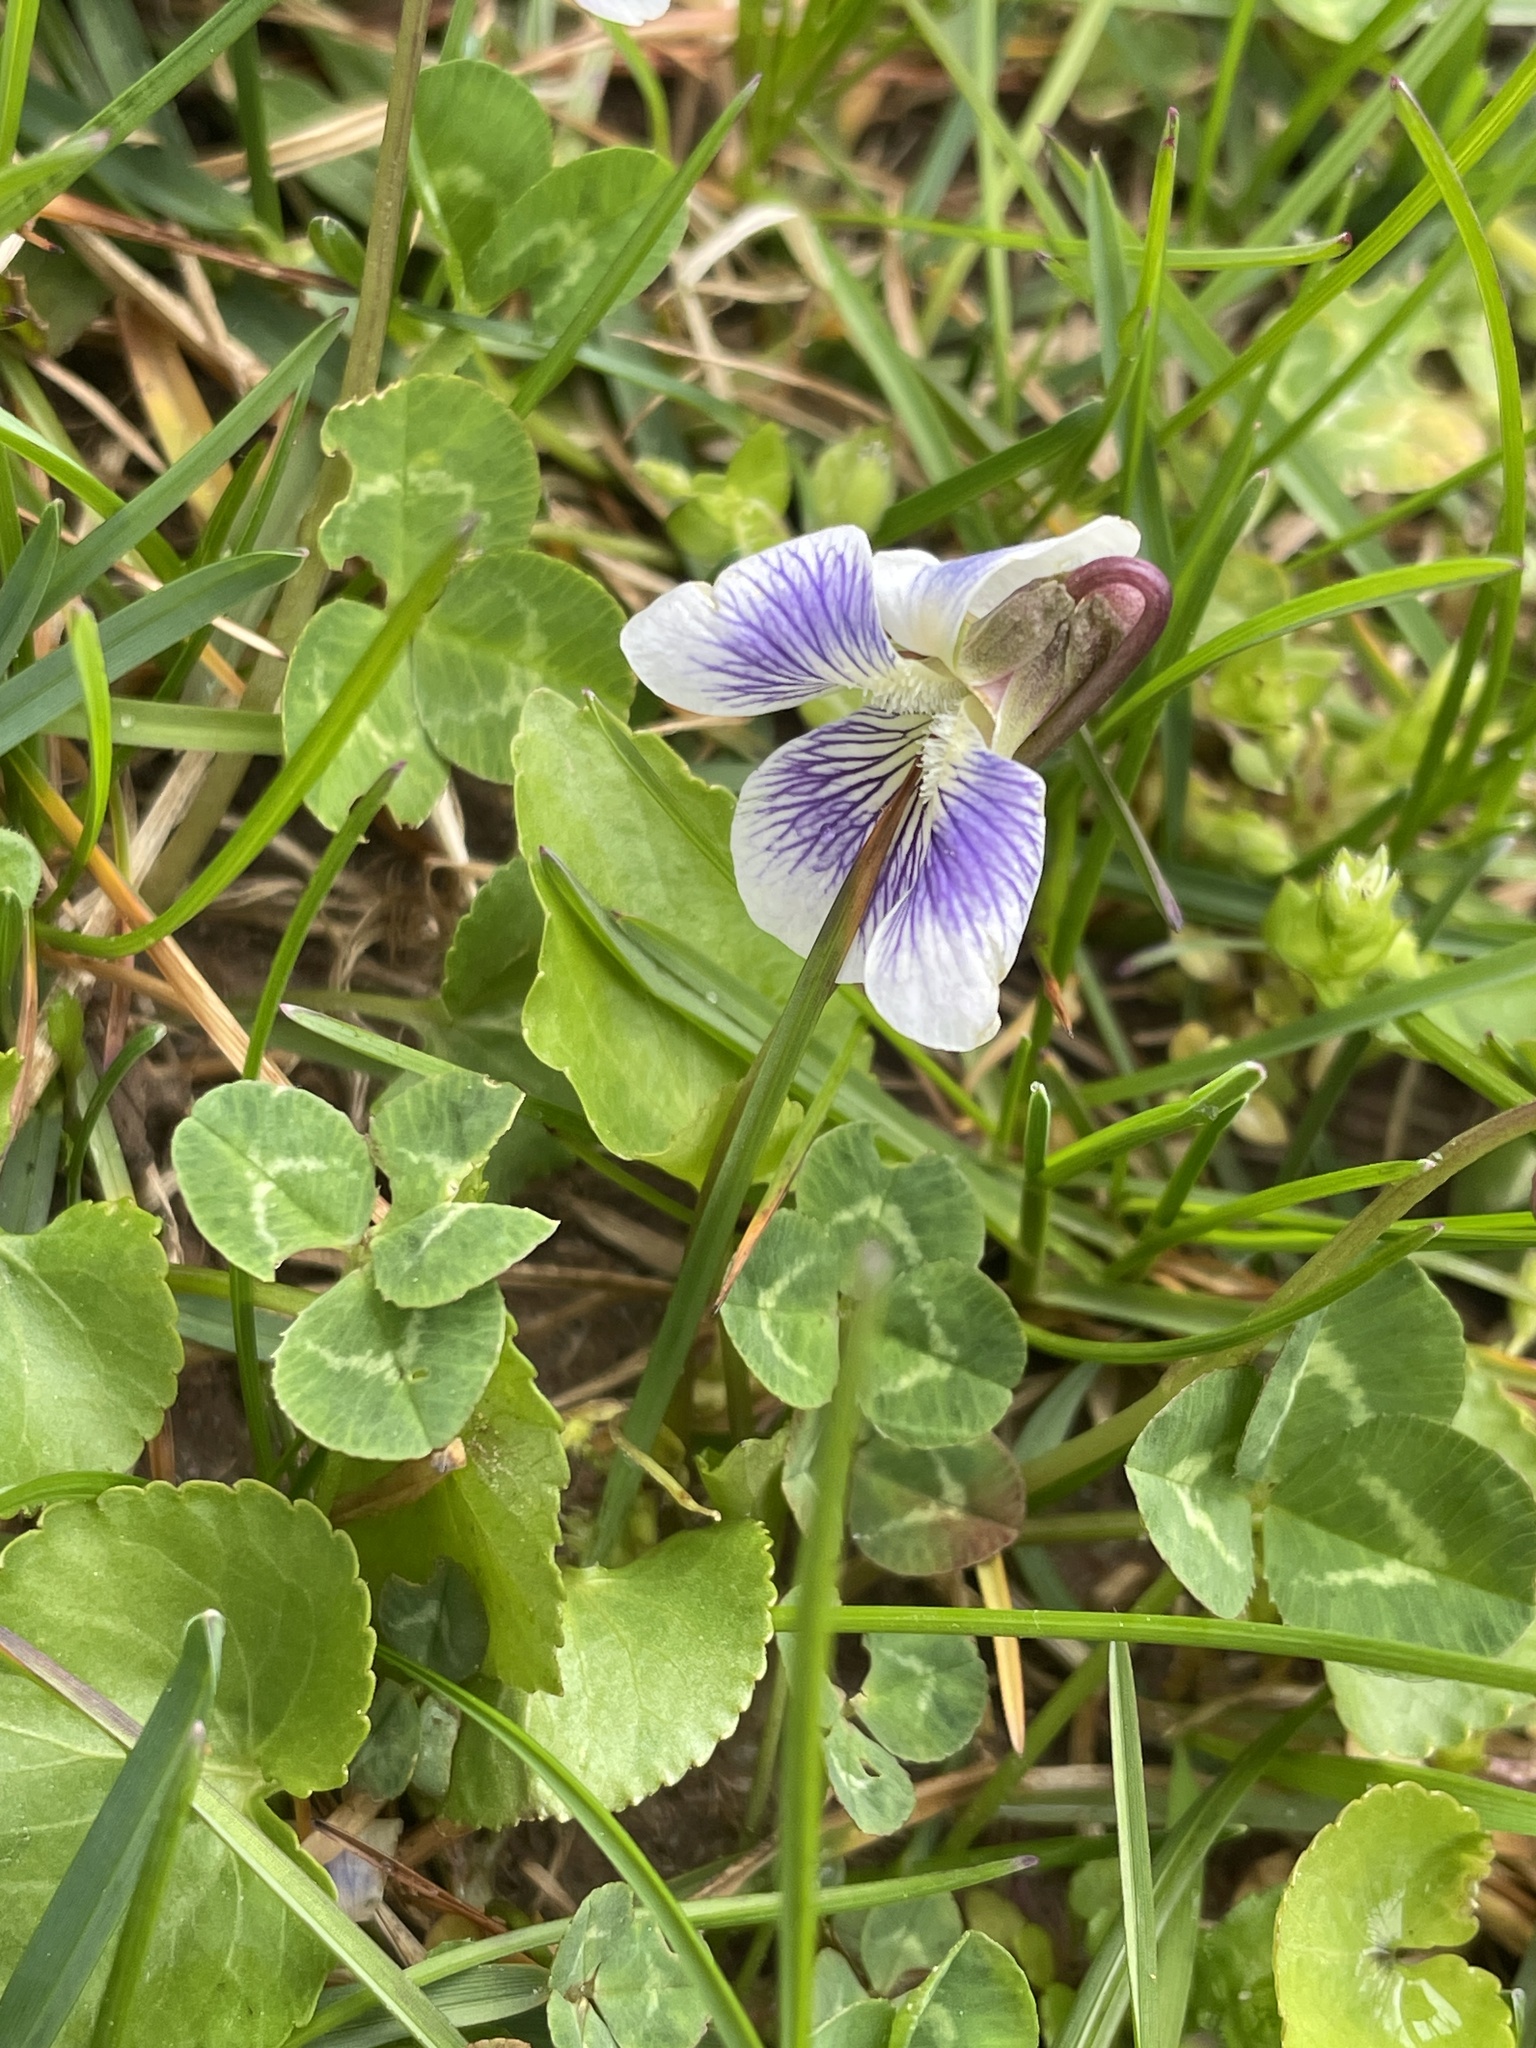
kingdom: Plantae
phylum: Tracheophyta
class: Magnoliopsida
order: Malpighiales
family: Violaceae
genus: Viola
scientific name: Viola sororia
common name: Dooryard violet
